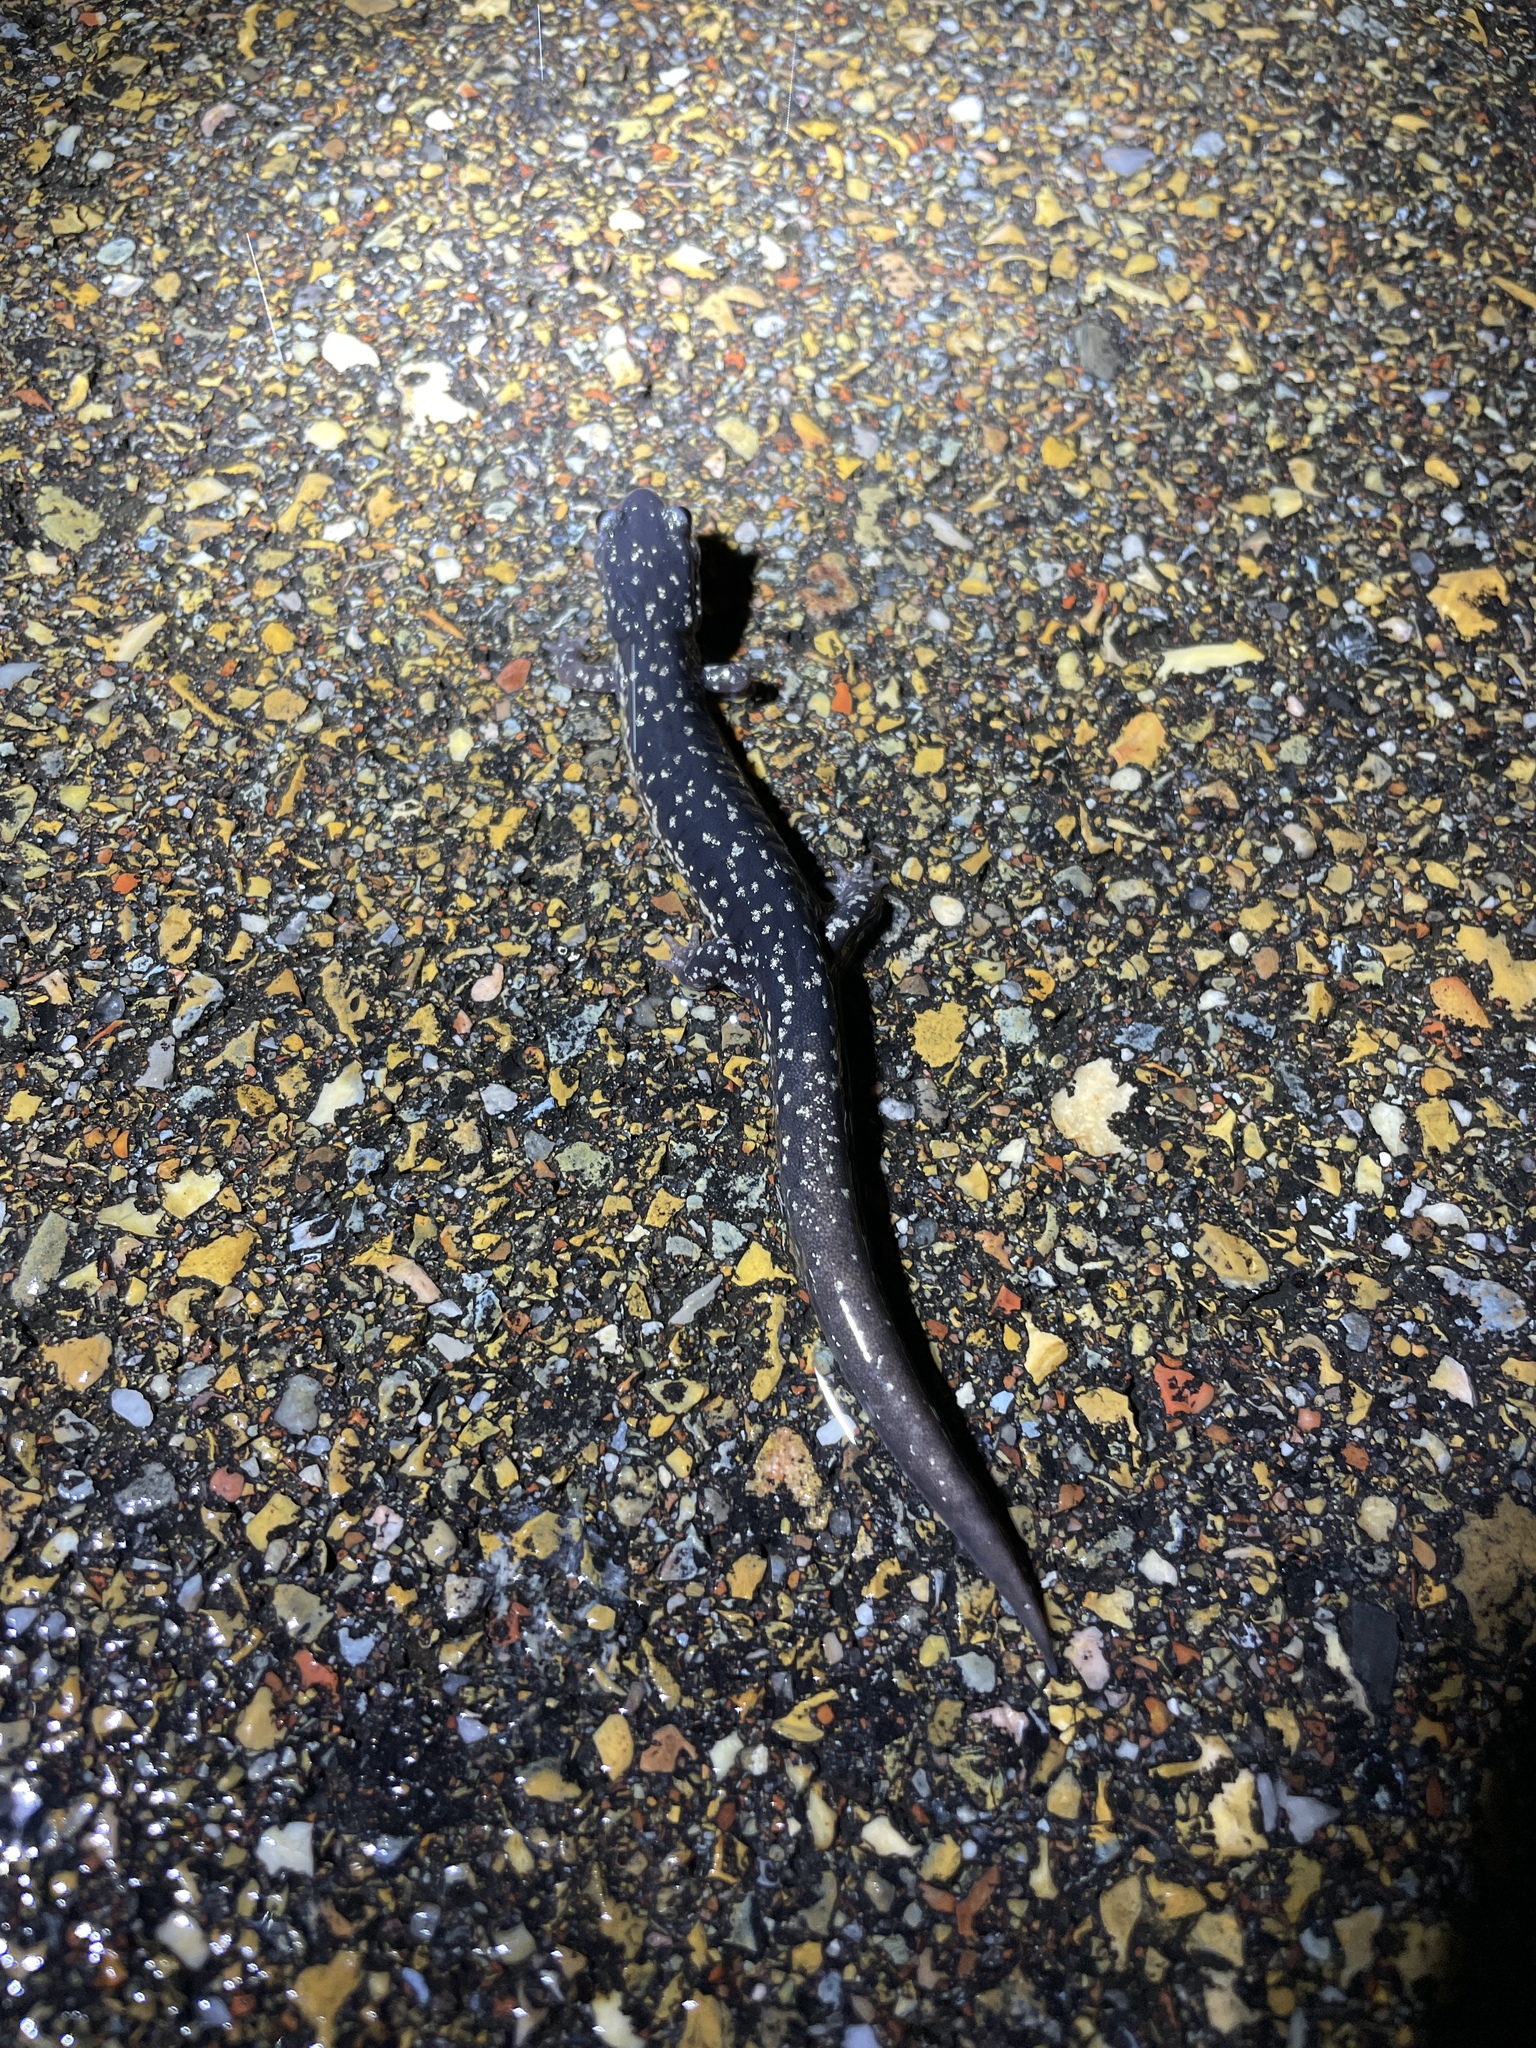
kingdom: Animalia
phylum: Chordata
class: Amphibia
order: Caudata
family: Plethodontidae
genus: Plethodon
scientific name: Plethodon mississippi
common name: Mississippi slimy salamander
